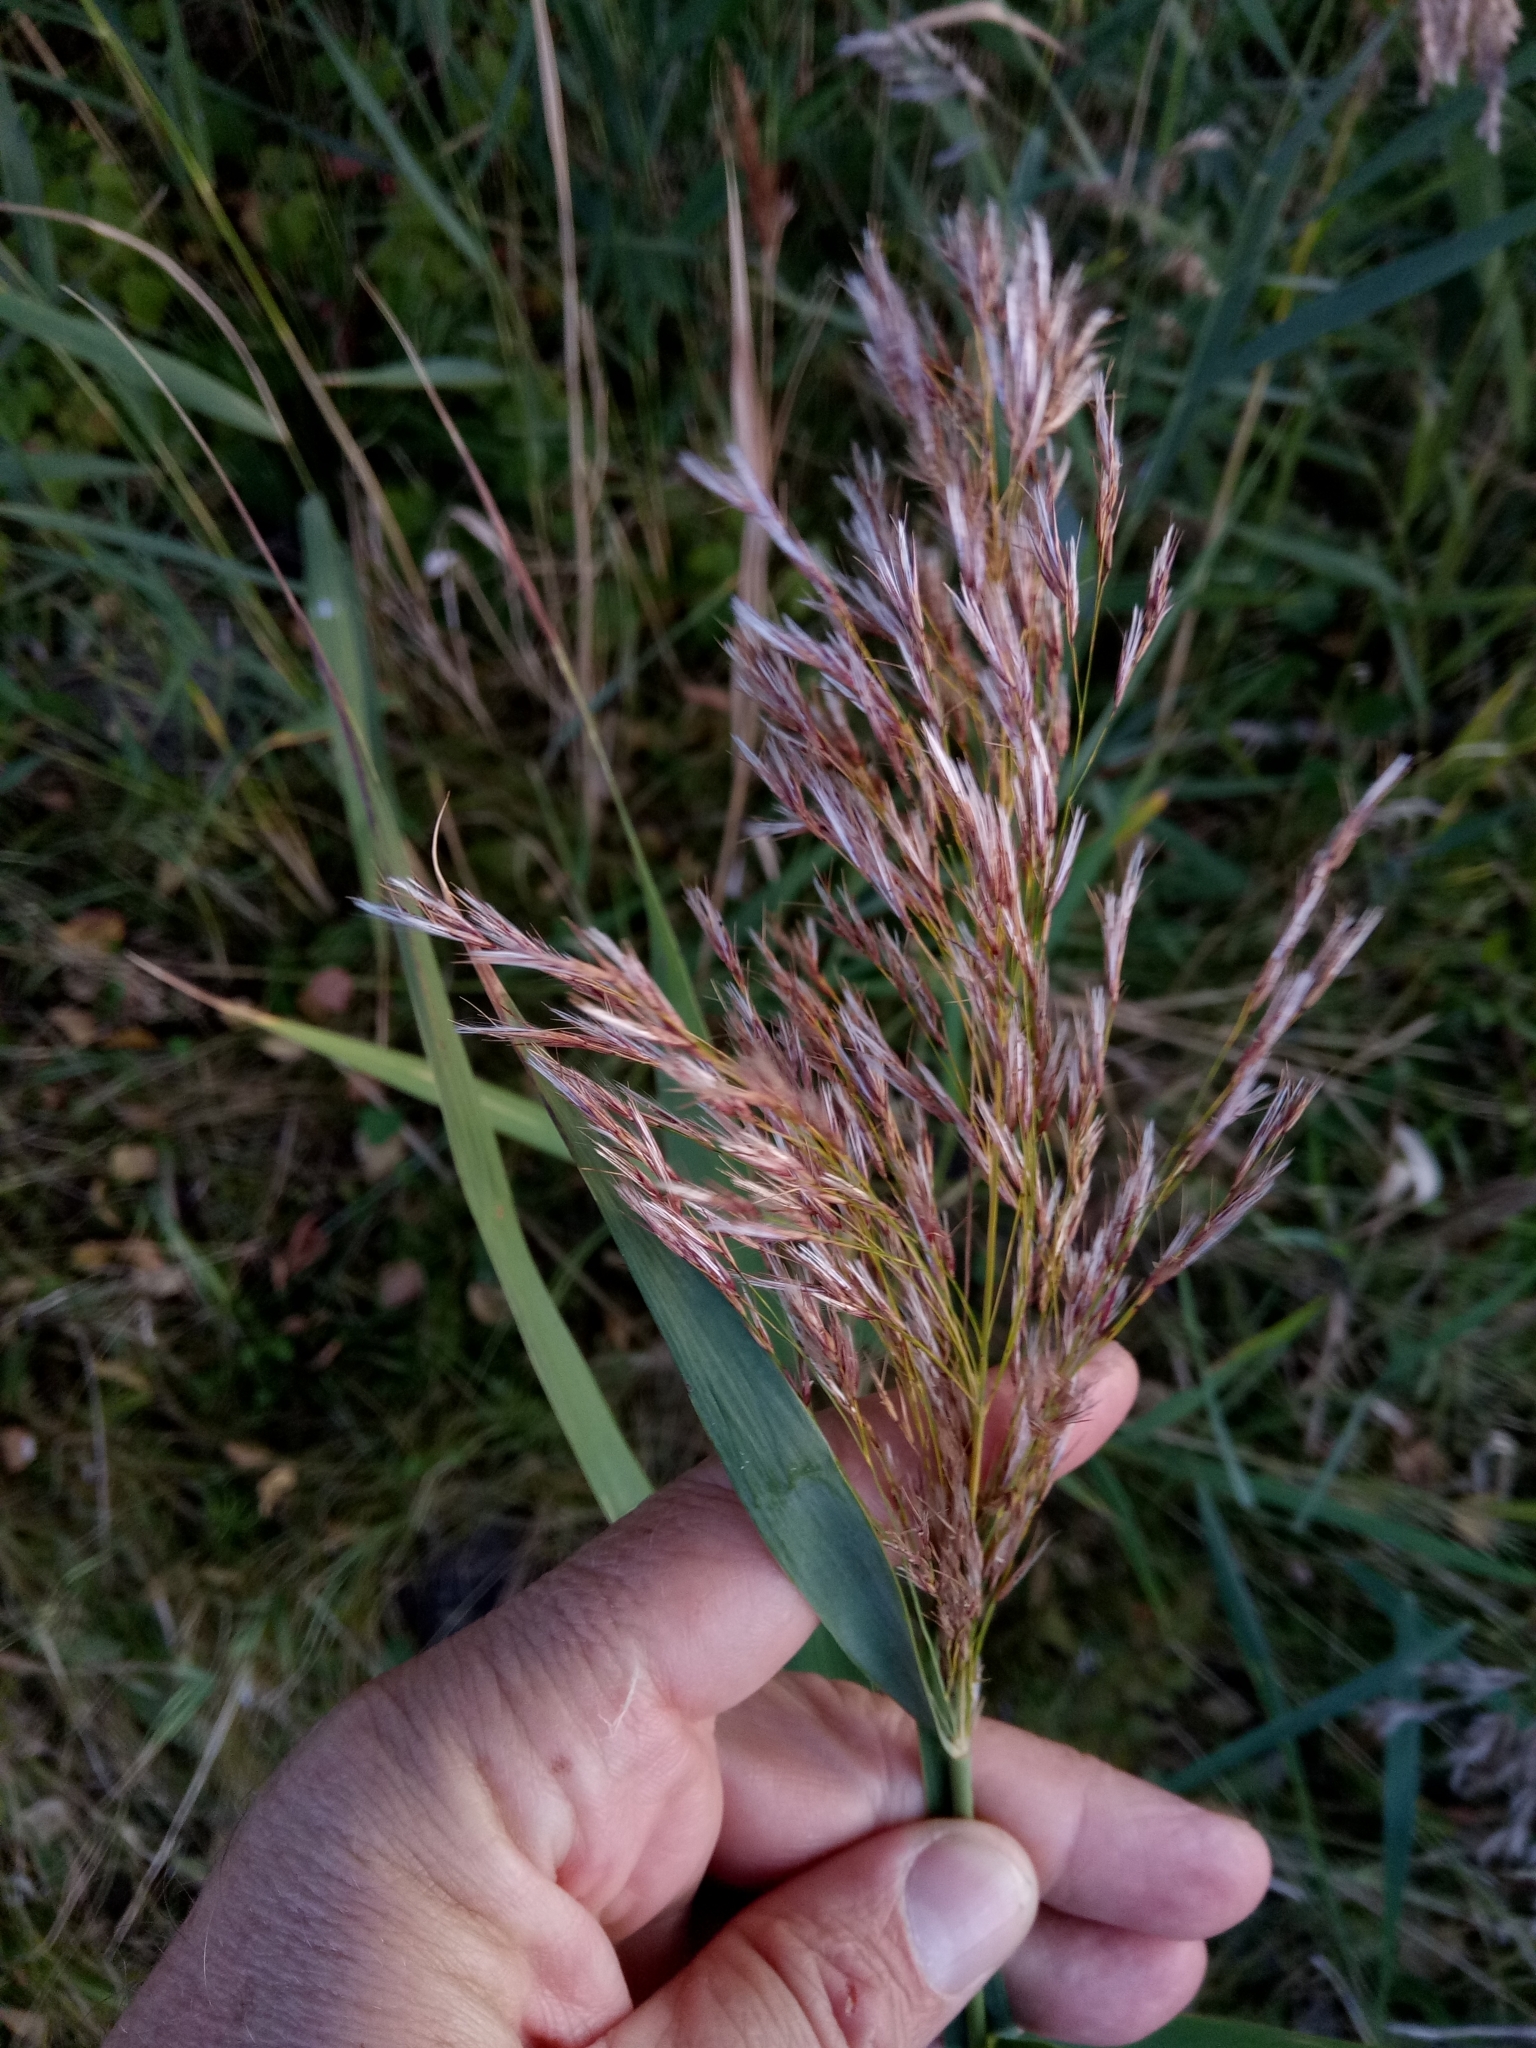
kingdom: Plantae
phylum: Tracheophyta
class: Liliopsida
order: Poales
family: Poaceae
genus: Phragmites
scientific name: Phragmites australis
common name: Common reed
